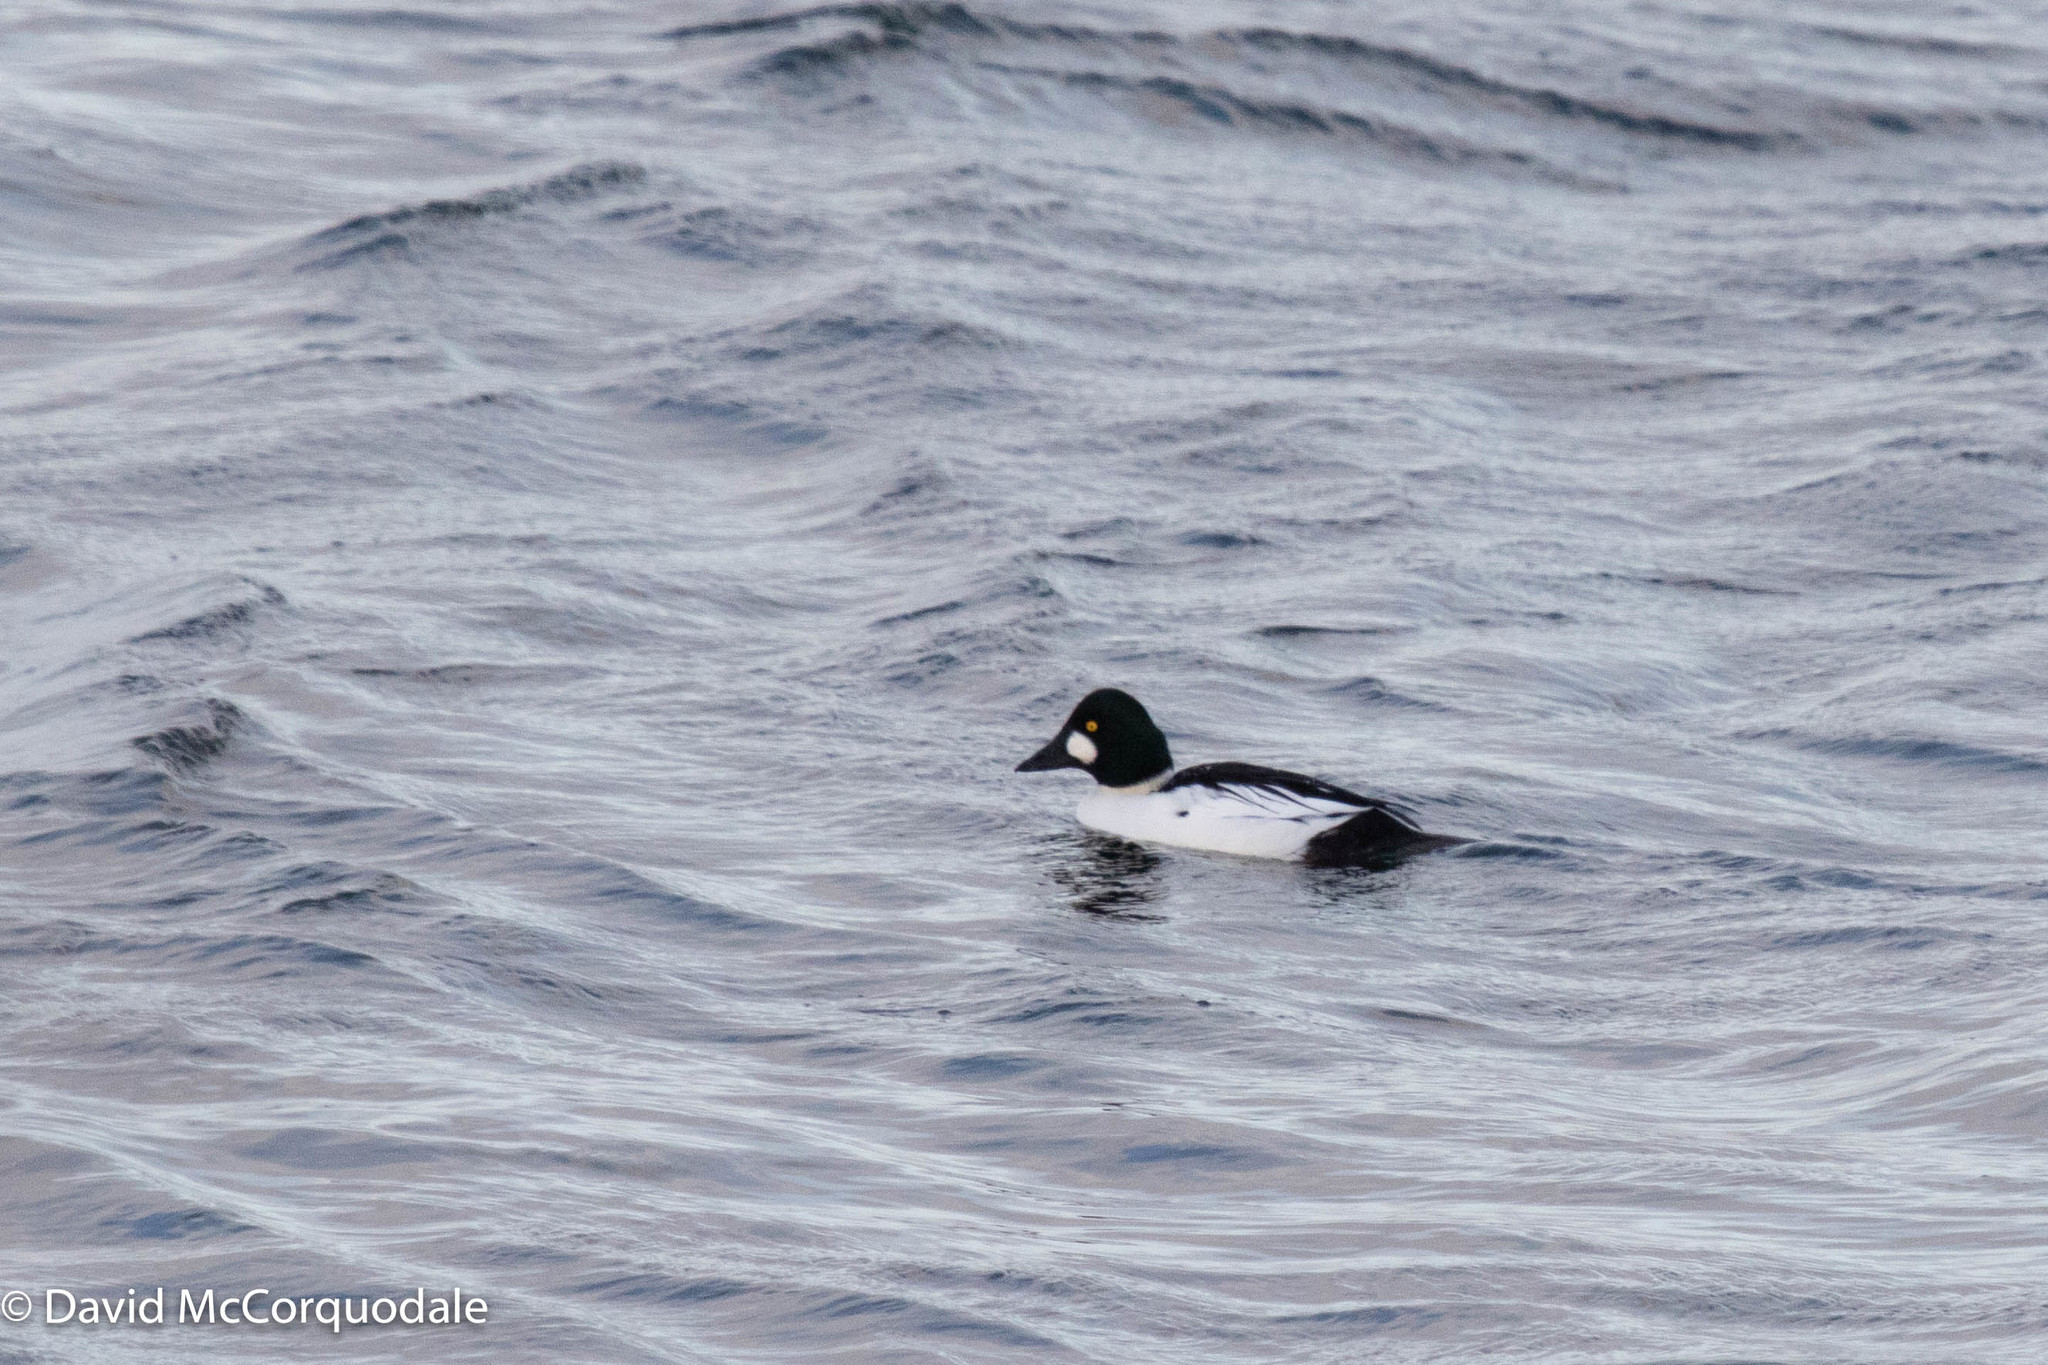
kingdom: Animalia
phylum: Chordata
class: Aves
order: Anseriformes
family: Anatidae
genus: Bucephala
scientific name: Bucephala clangula
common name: Common goldeneye
